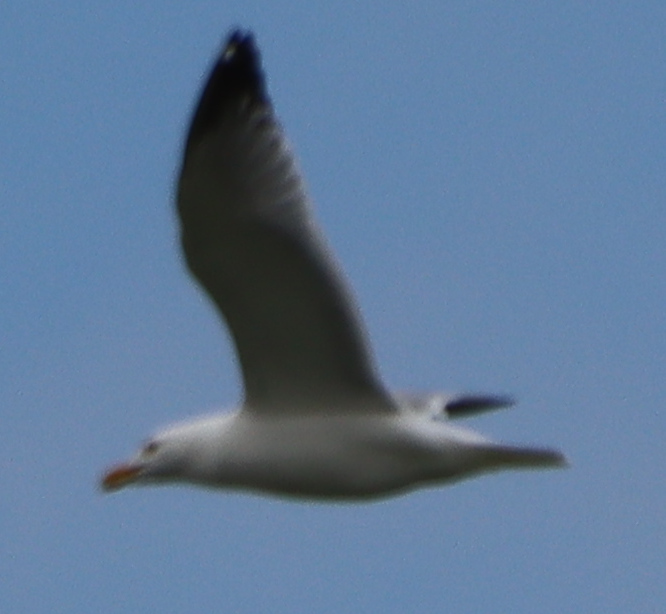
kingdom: Animalia
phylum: Chordata
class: Aves
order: Charadriiformes
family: Laridae
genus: Larus
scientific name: Larus argentatus
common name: Herring gull
